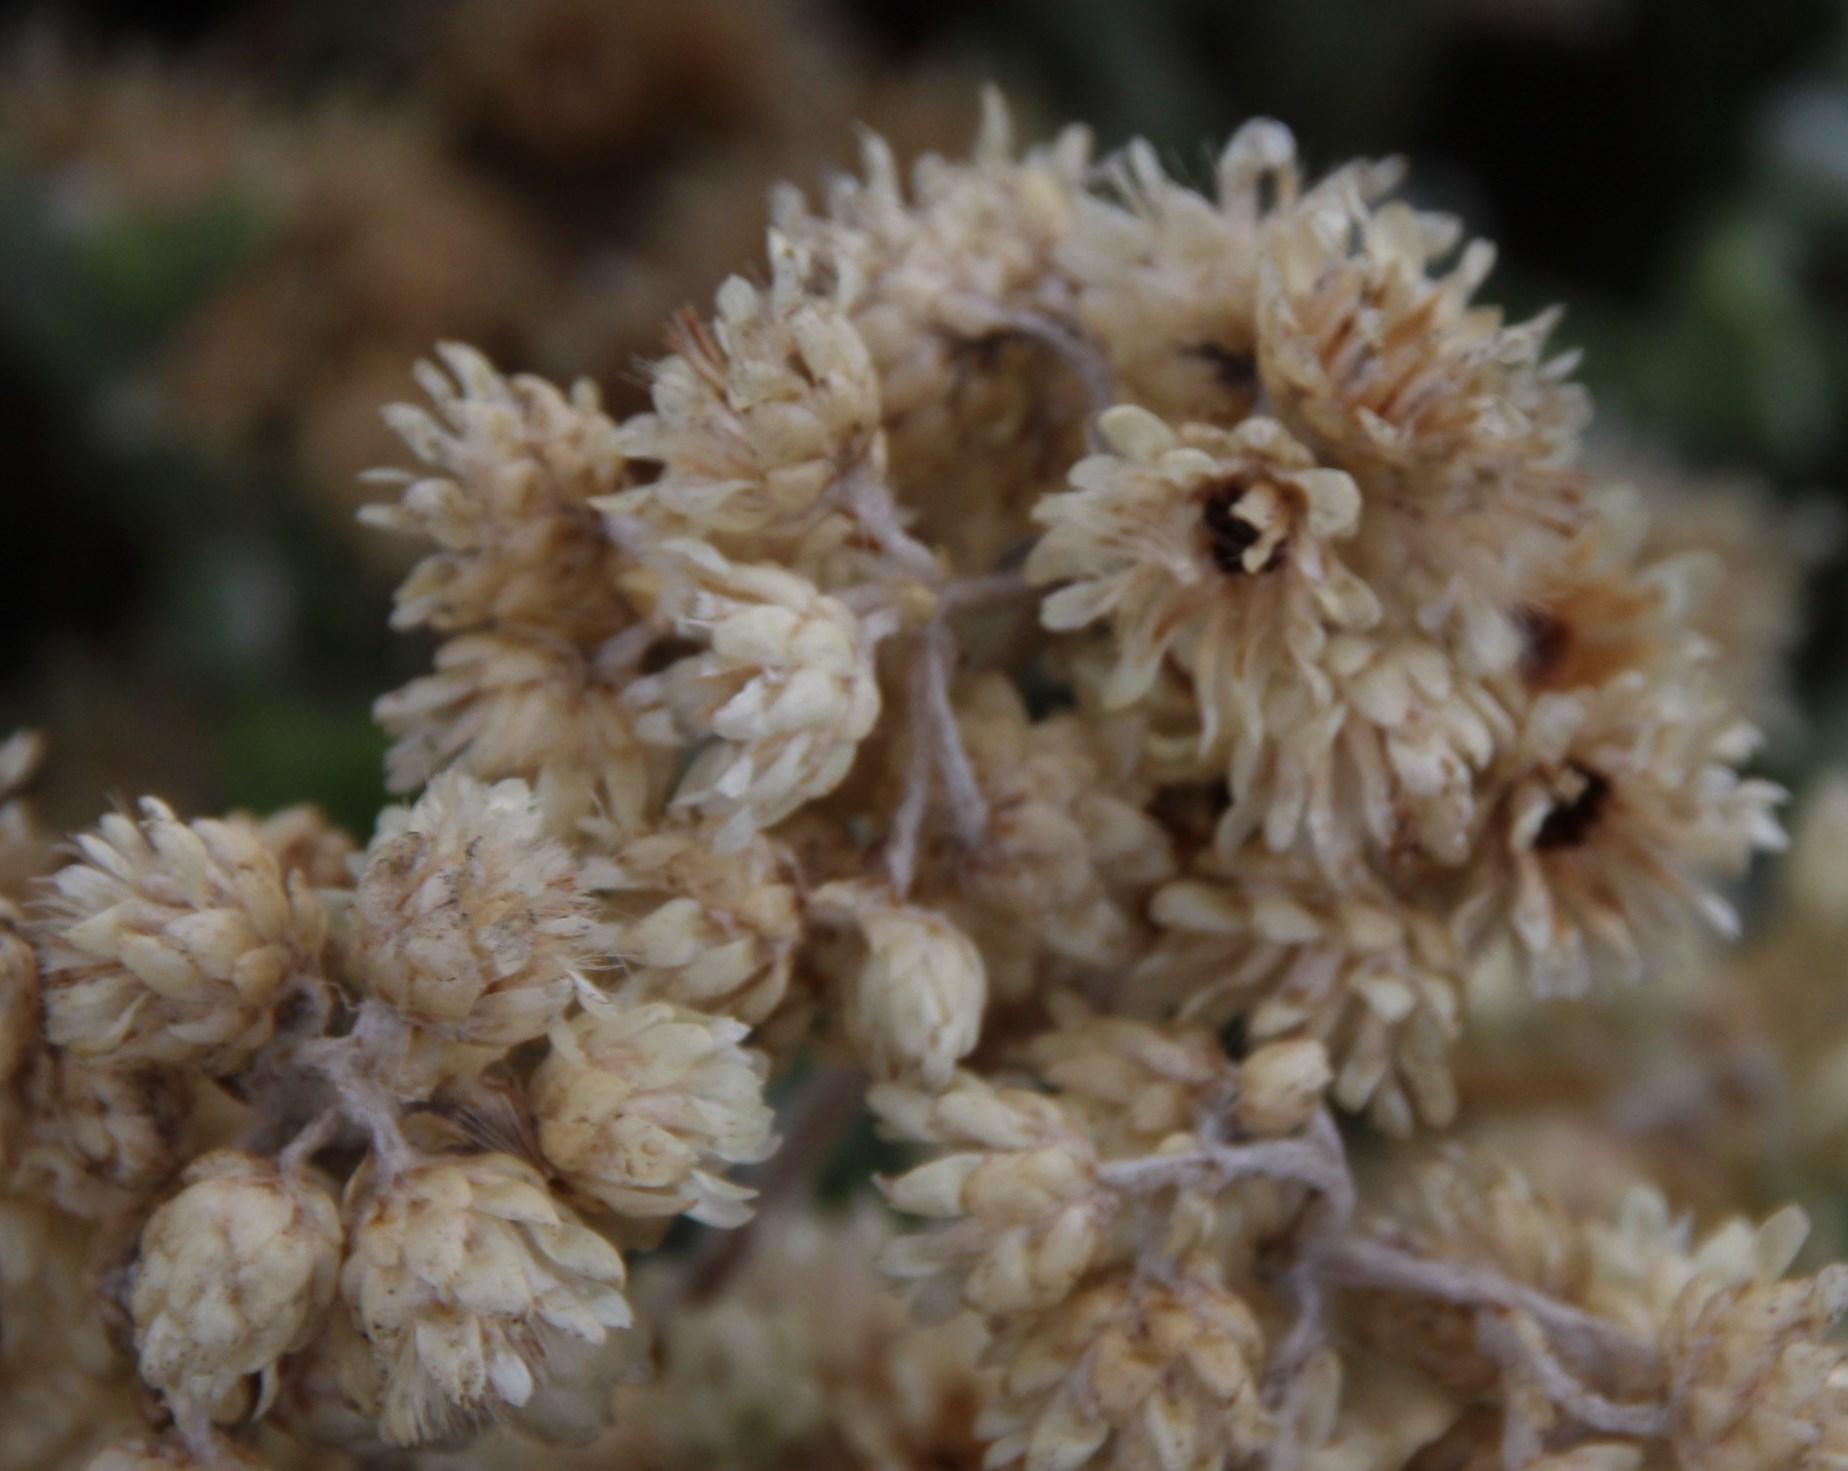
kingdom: Plantae
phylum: Tracheophyta
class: Magnoliopsida
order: Asterales
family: Asteraceae
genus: Helichrysum
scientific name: Helichrysum patulum
